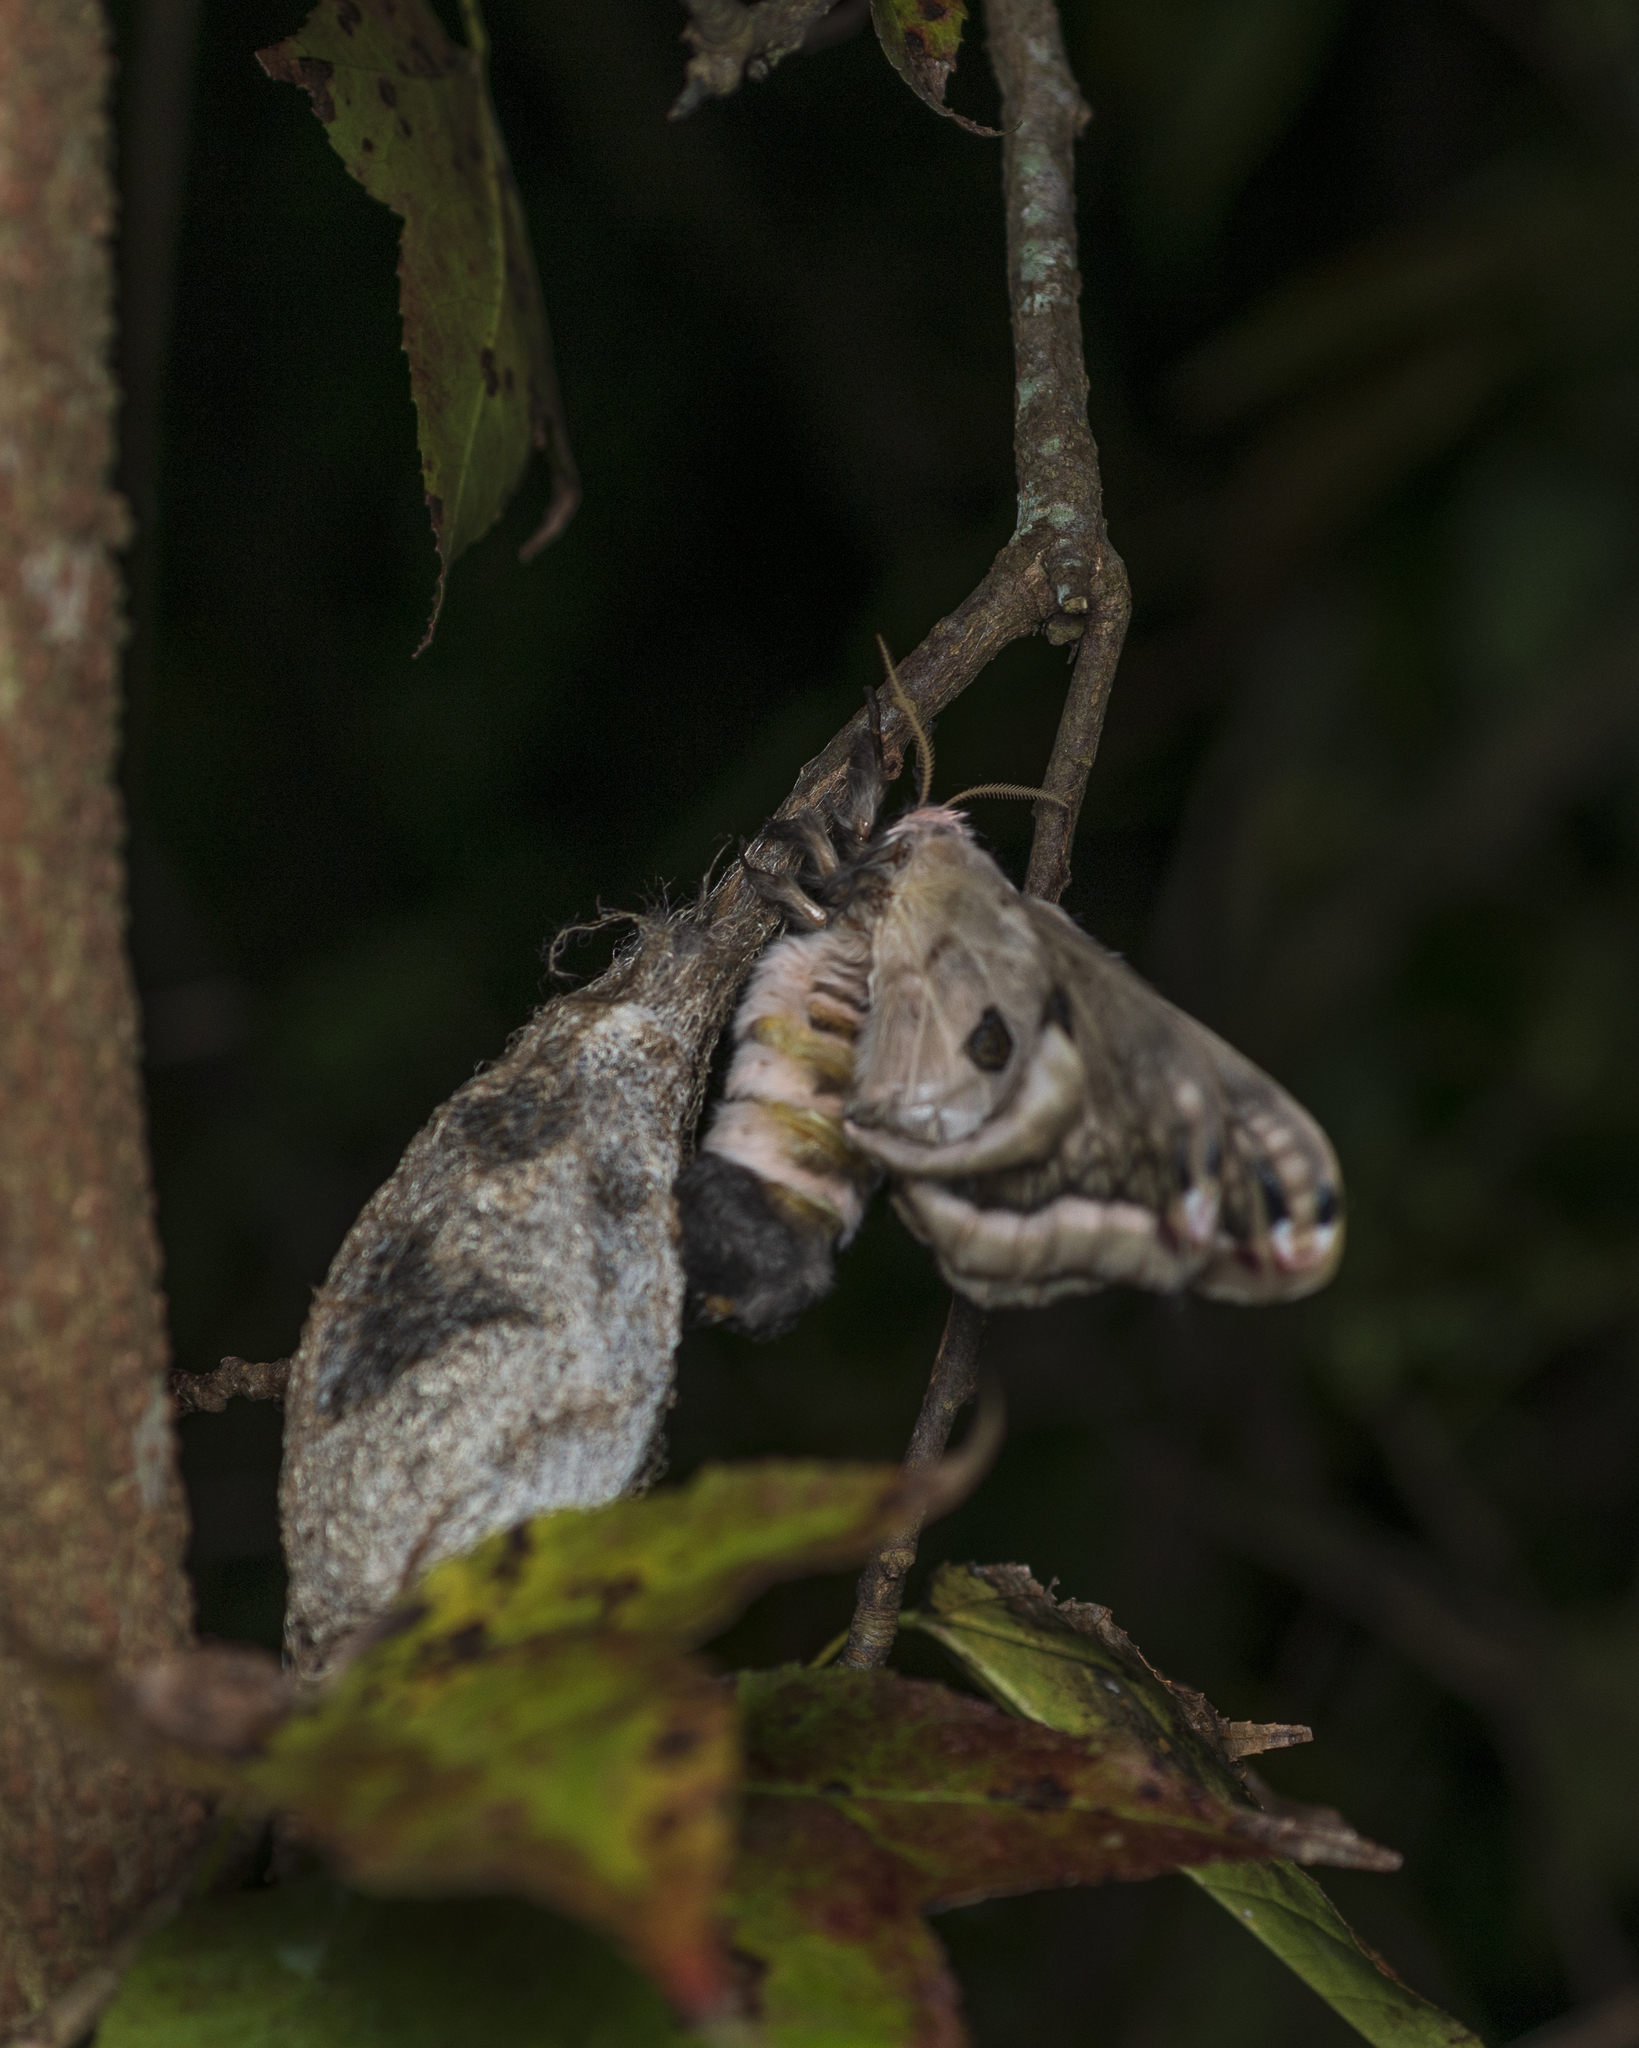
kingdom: Animalia
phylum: Arthropoda
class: Insecta
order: Lepidoptera
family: Saturniidae
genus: Saturnia
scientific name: Saturnia pyretorum
